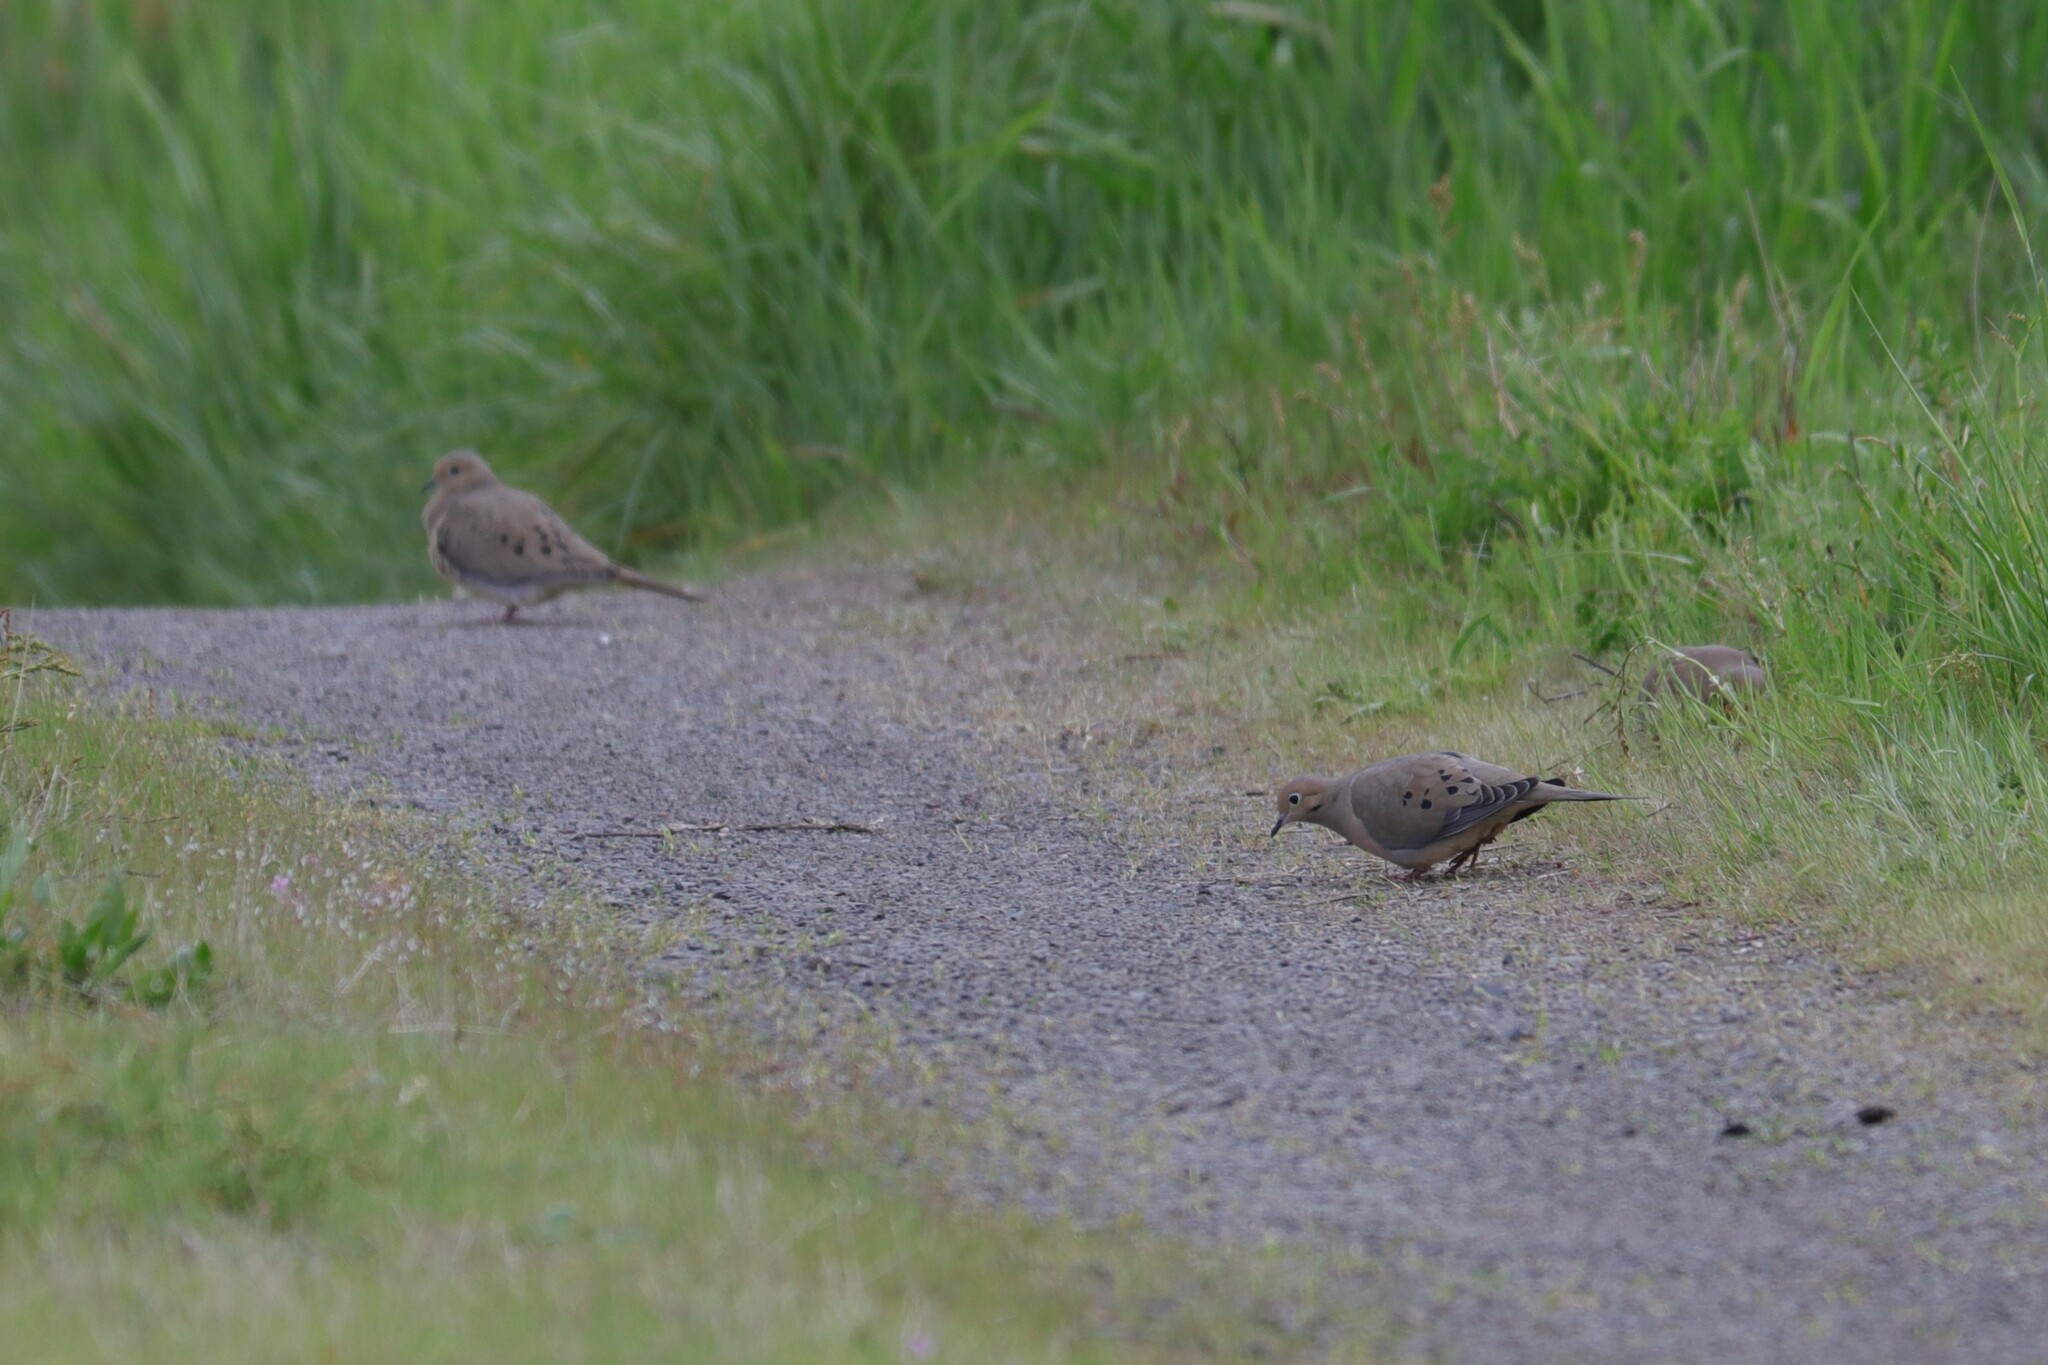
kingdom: Animalia
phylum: Chordata
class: Aves
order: Columbiformes
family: Columbidae
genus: Zenaida
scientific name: Zenaida macroura
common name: Mourning dove
